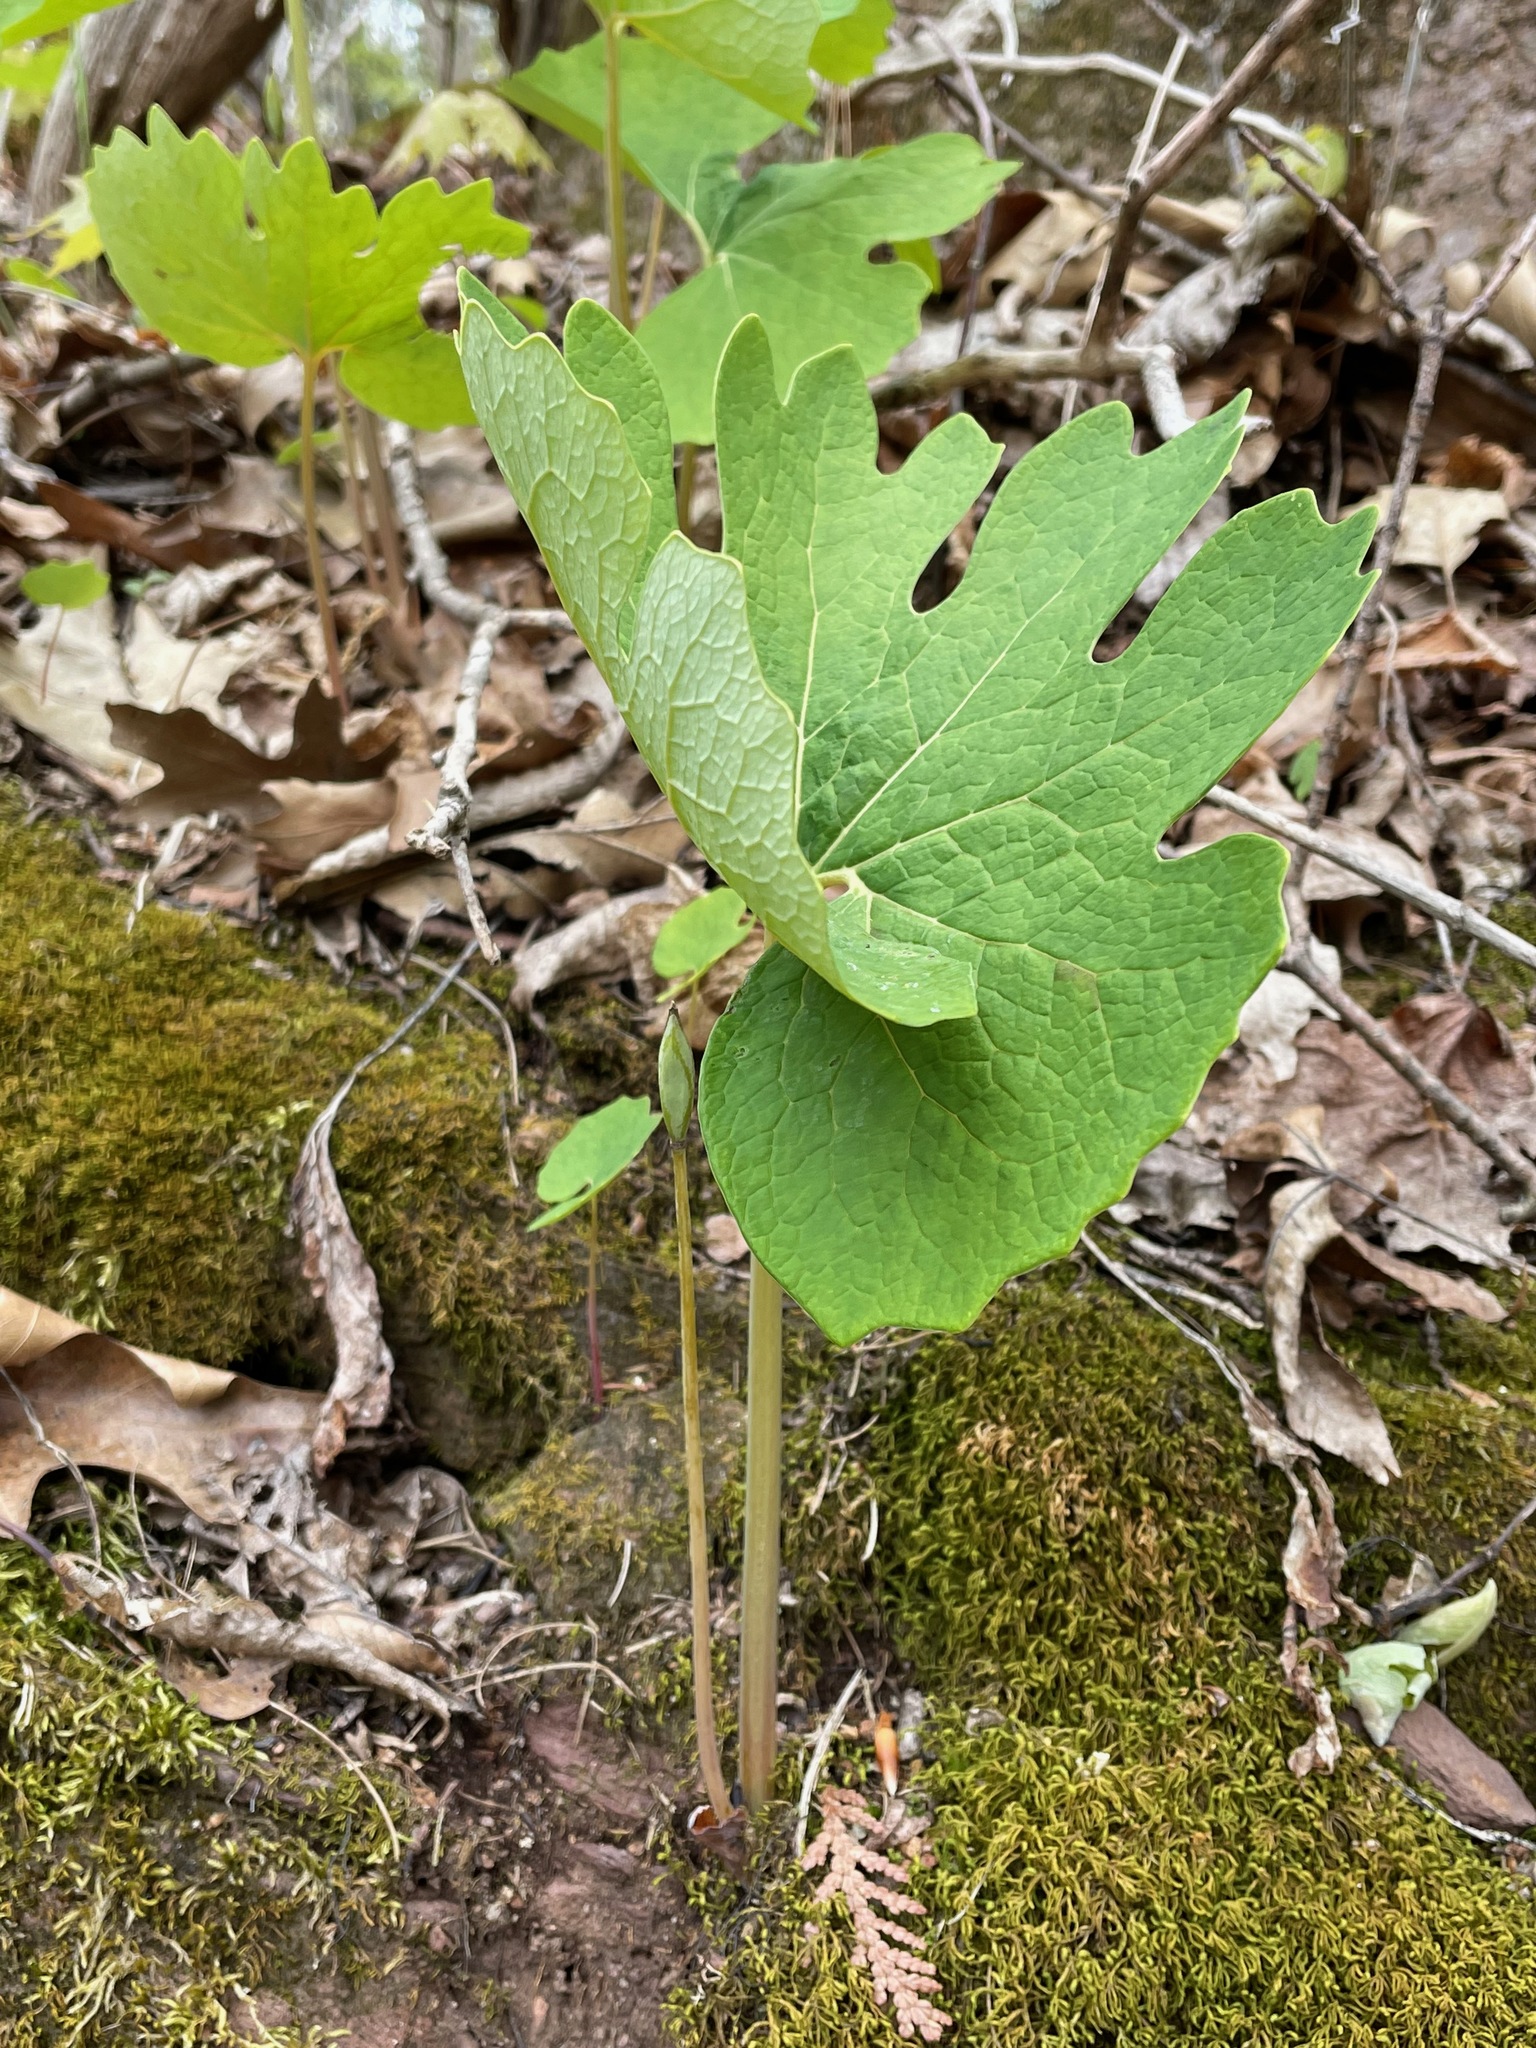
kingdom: Plantae
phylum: Tracheophyta
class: Magnoliopsida
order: Ranunculales
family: Papaveraceae
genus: Sanguinaria
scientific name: Sanguinaria canadensis
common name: Bloodroot
